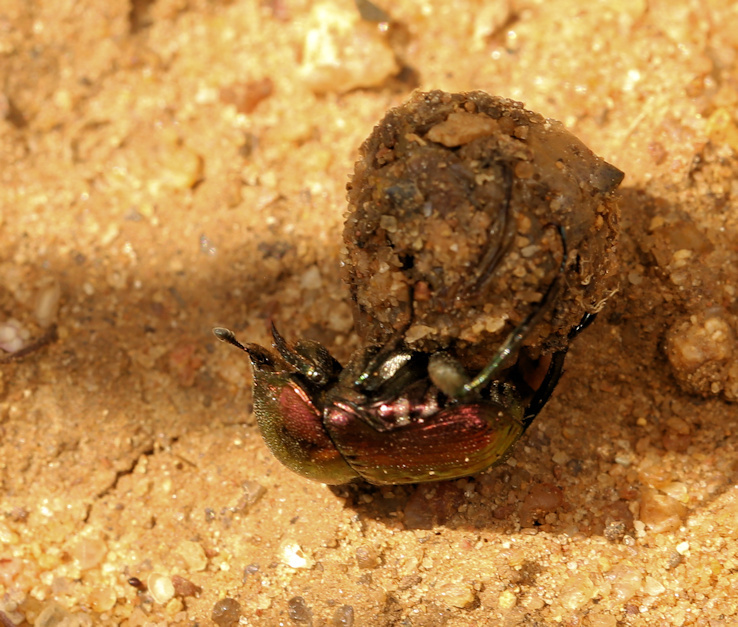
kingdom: Animalia
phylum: Arthropoda
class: Insecta
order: Coleoptera
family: Scarabaeidae
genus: Gymnopleurus
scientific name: Gymnopleurus virens
